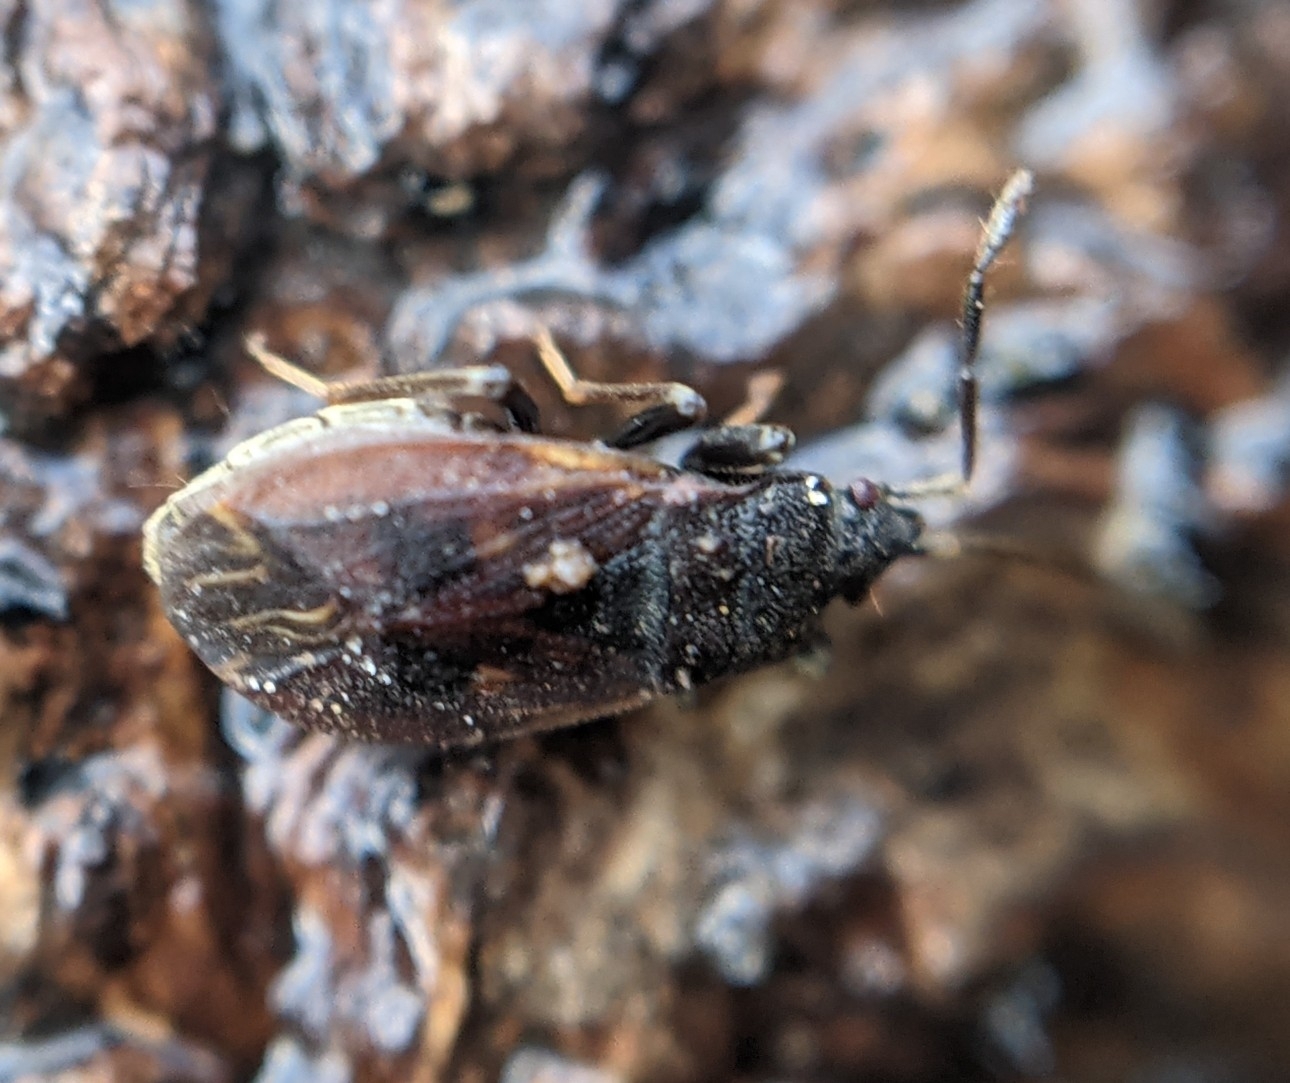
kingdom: Animalia
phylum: Arthropoda
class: Insecta
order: Hemiptera
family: Rhyparochromidae
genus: Drymus
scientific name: Drymus brunneus
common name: Seed bug
